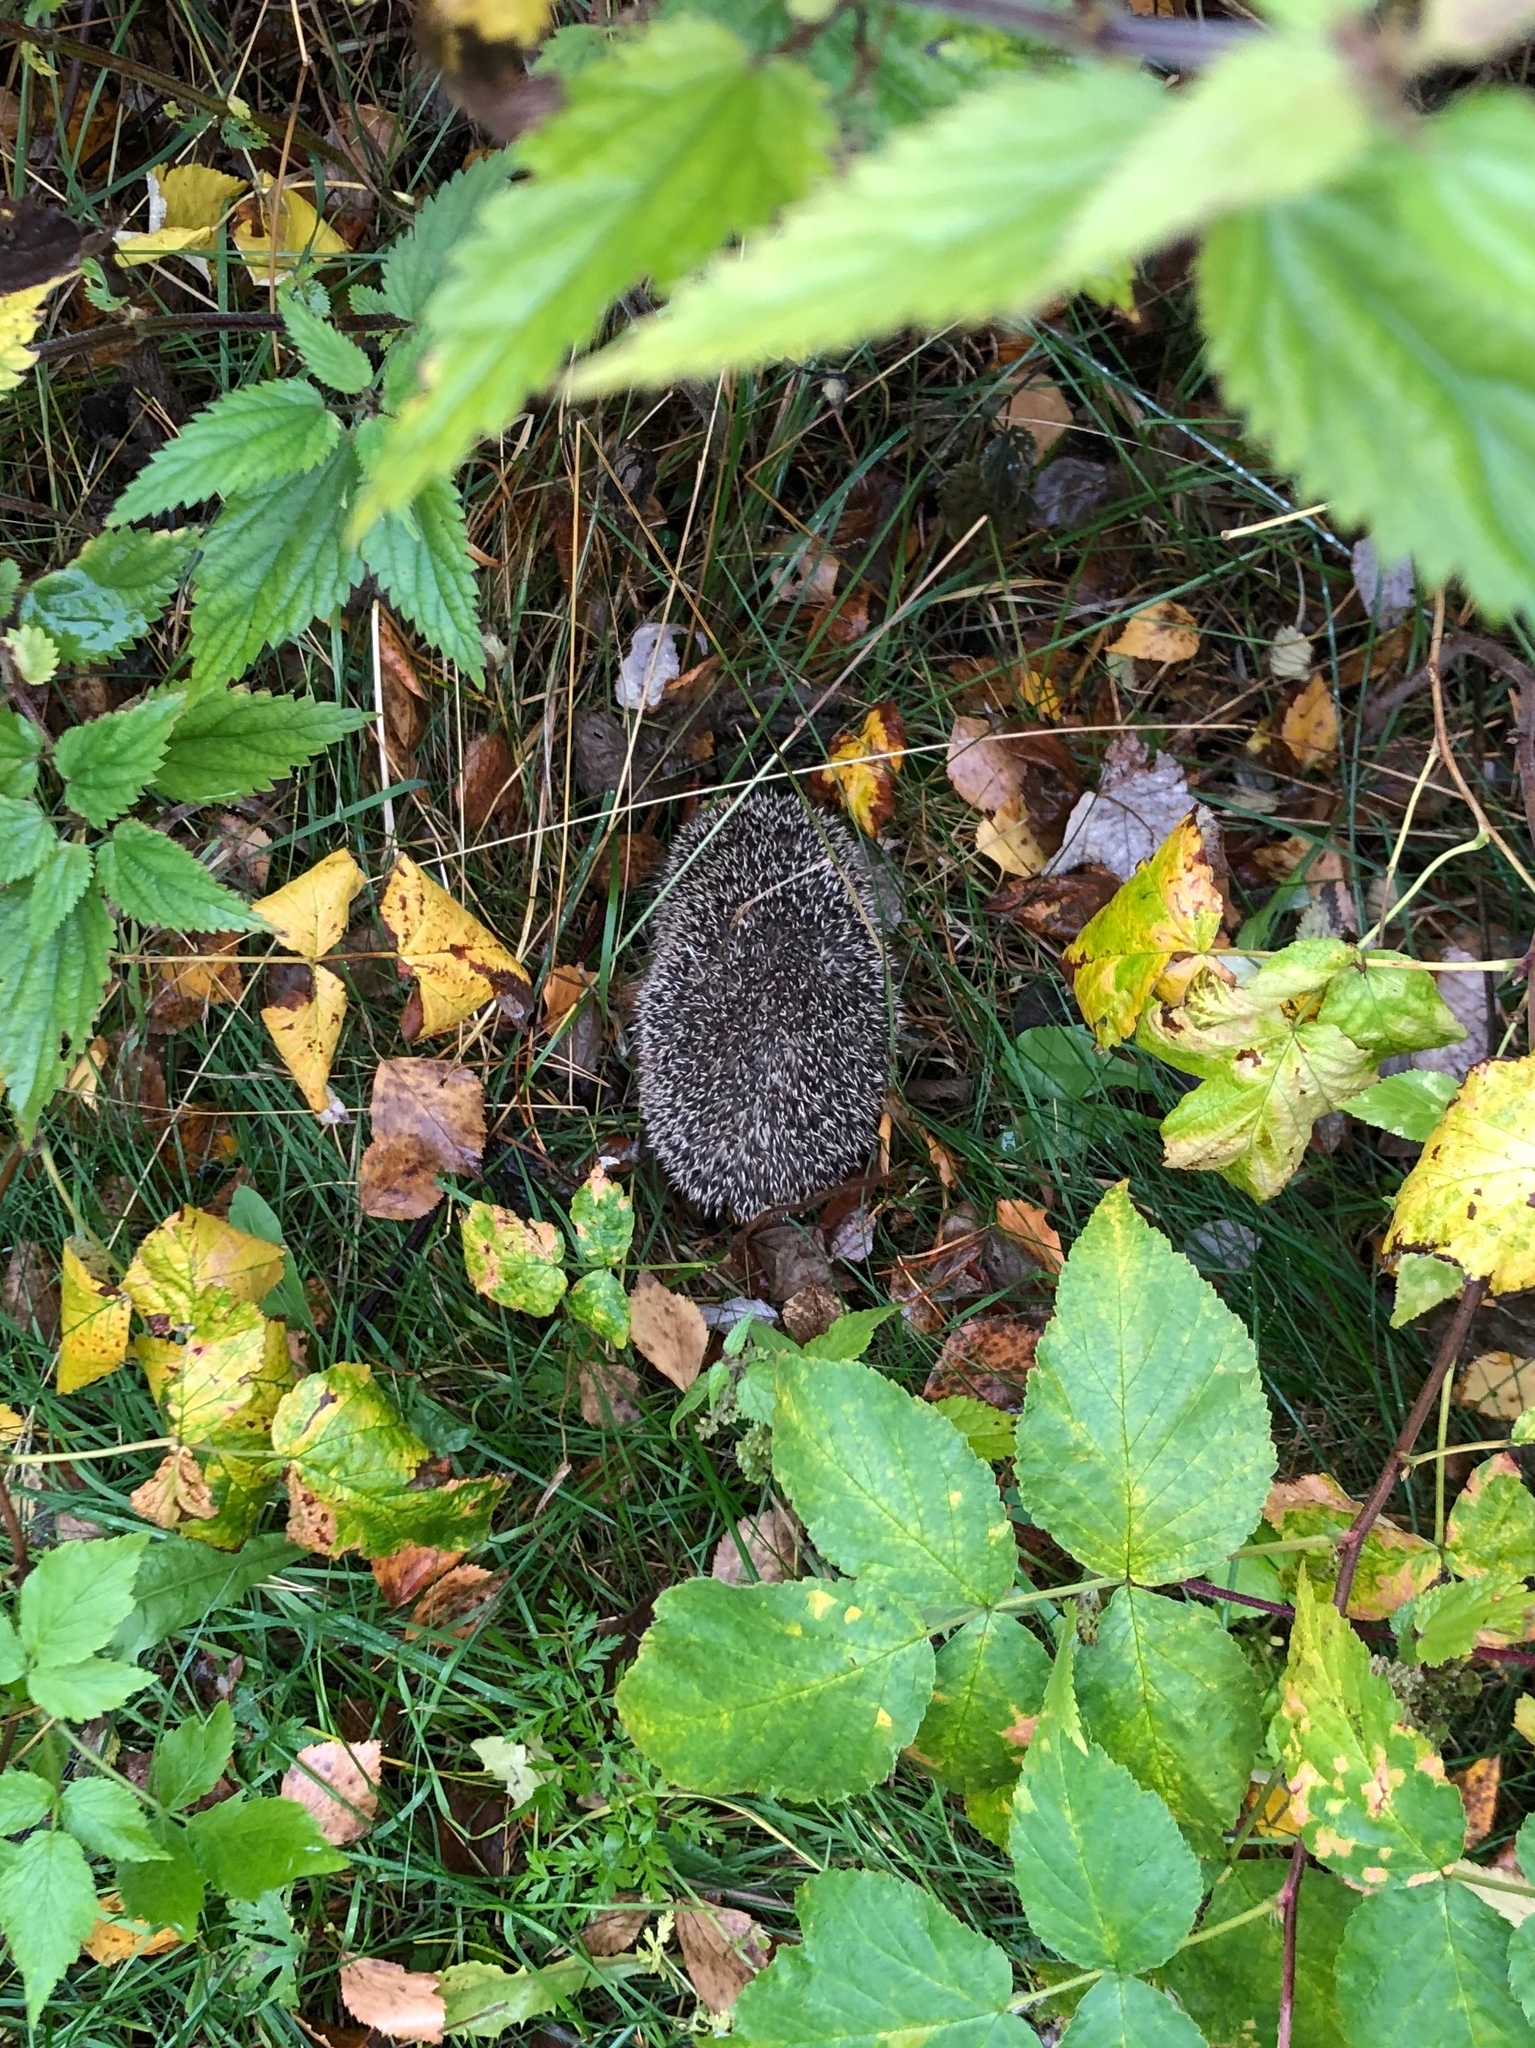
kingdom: Animalia
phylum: Chordata
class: Mammalia
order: Erinaceomorpha
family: Erinaceidae
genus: Erinaceus
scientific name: Erinaceus europaeus
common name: West european hedgehog
